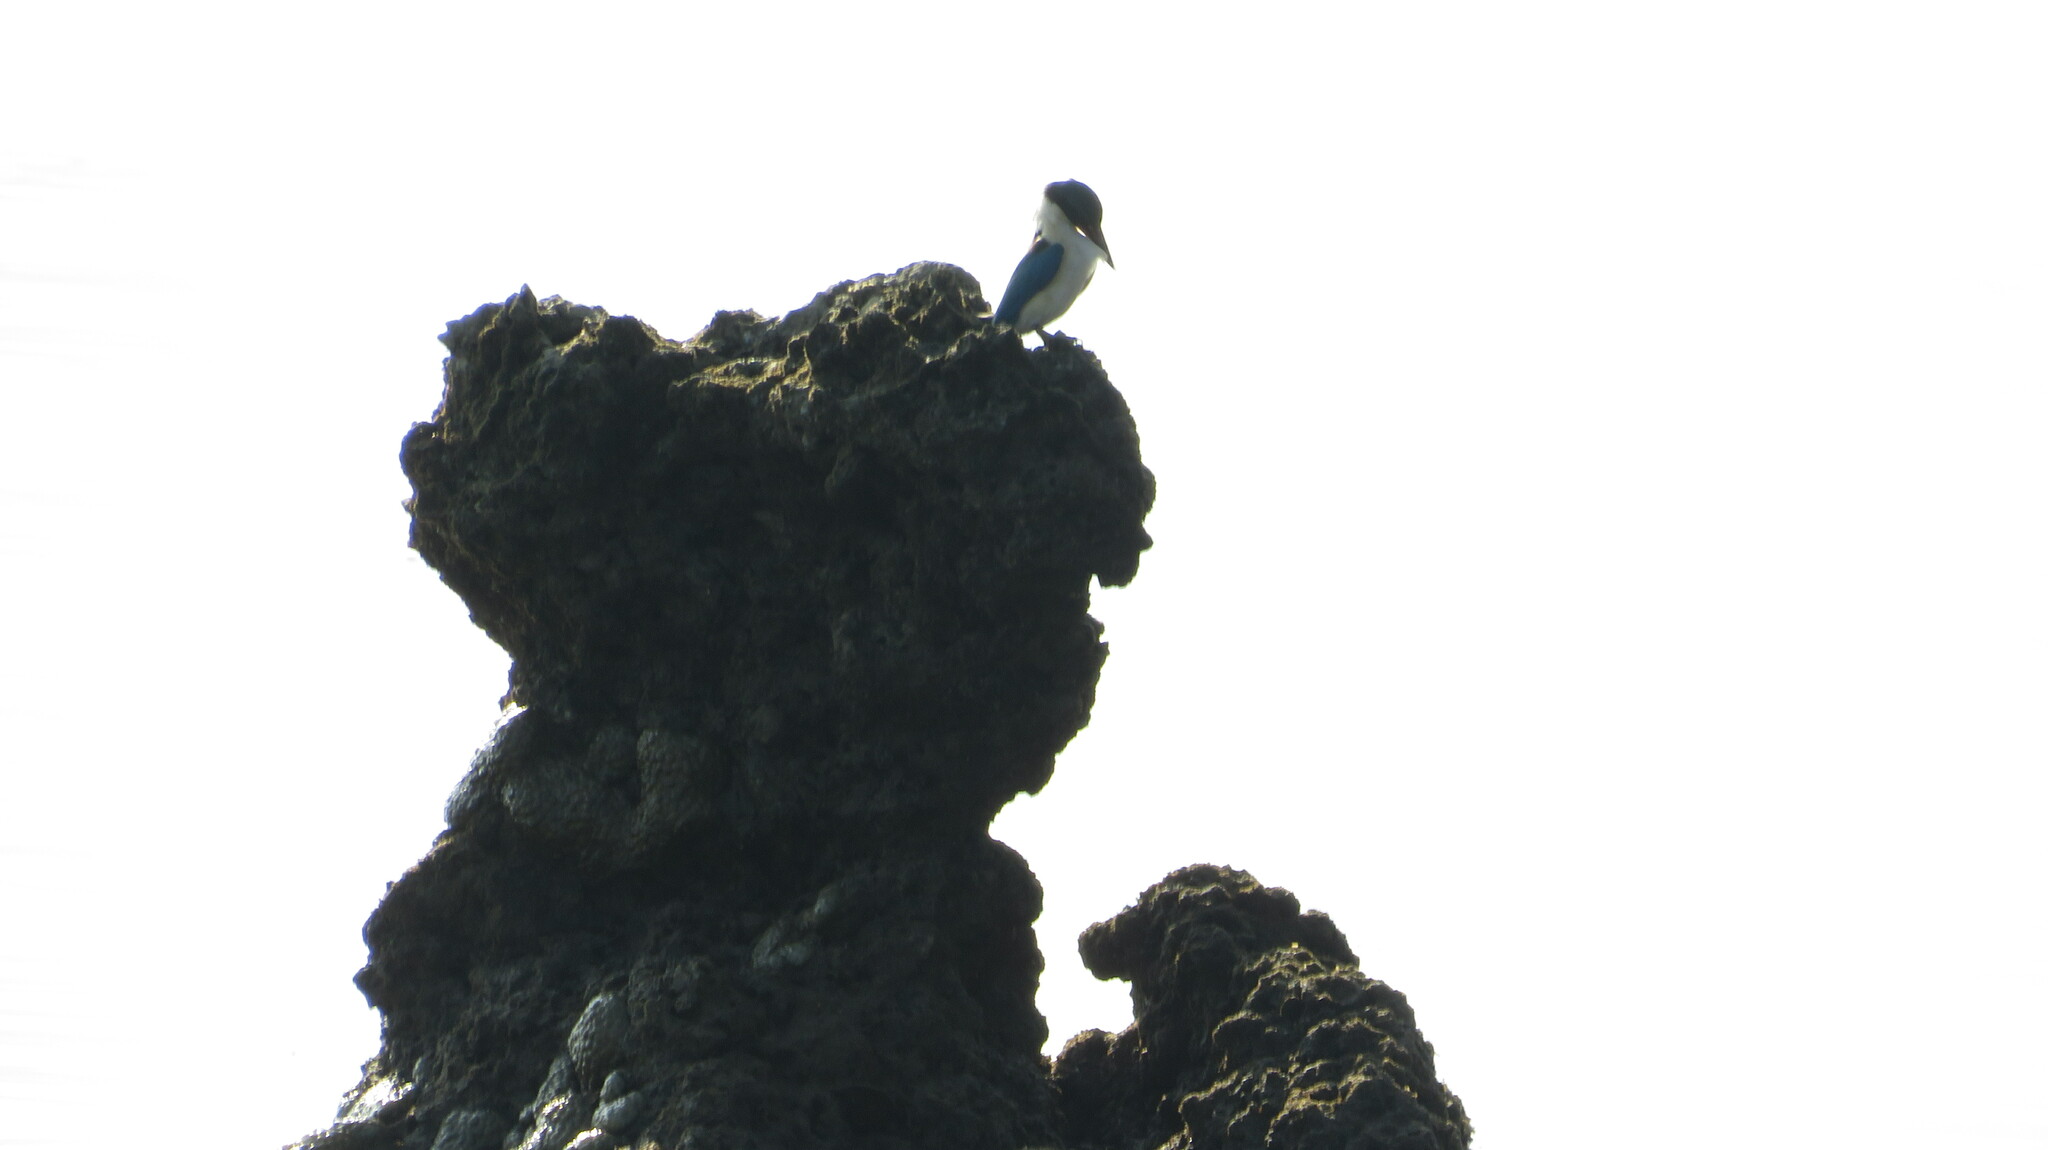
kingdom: Animalia
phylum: Chordata
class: Aves
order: Coraciiformes
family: Alcedinidae
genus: Todiramphus
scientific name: Todiramphus chloris
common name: Collared kingfisher
